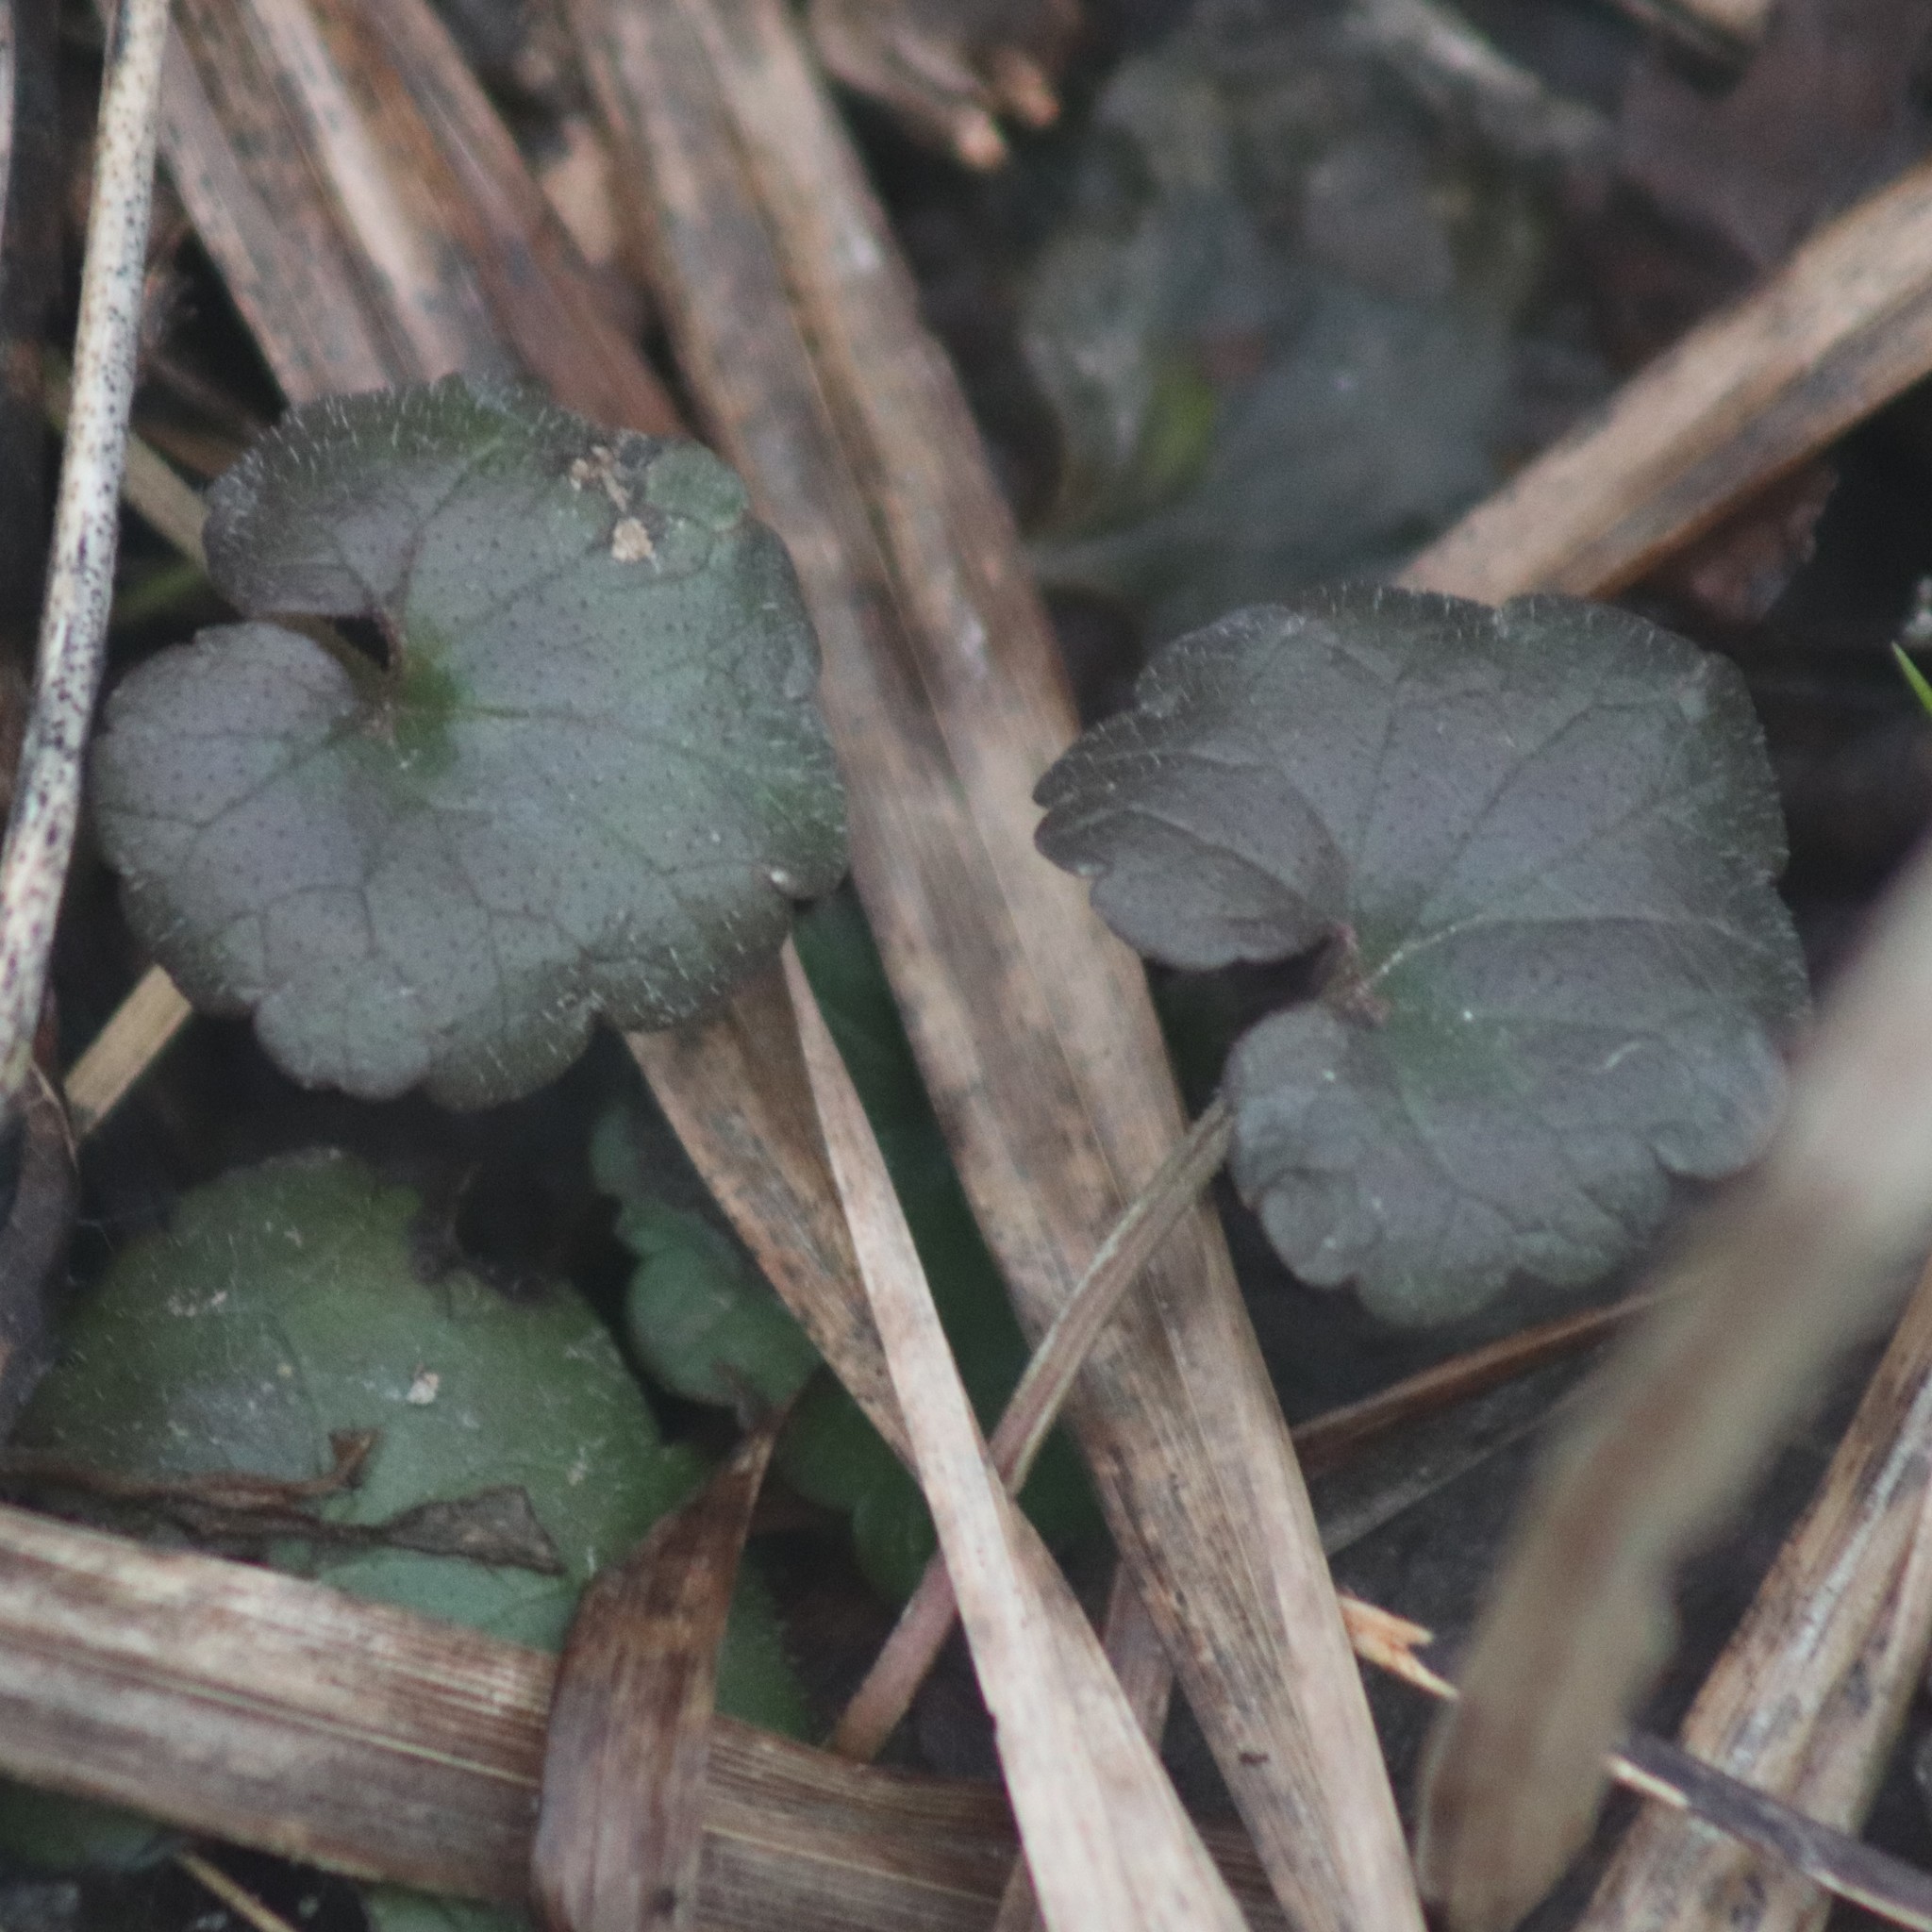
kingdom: Plantae
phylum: Tracheophyta
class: Magnoliopsida
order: Lamiales
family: Lamiaceae
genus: Glechoma
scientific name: Glechoma hederacea
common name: Ground ivy
